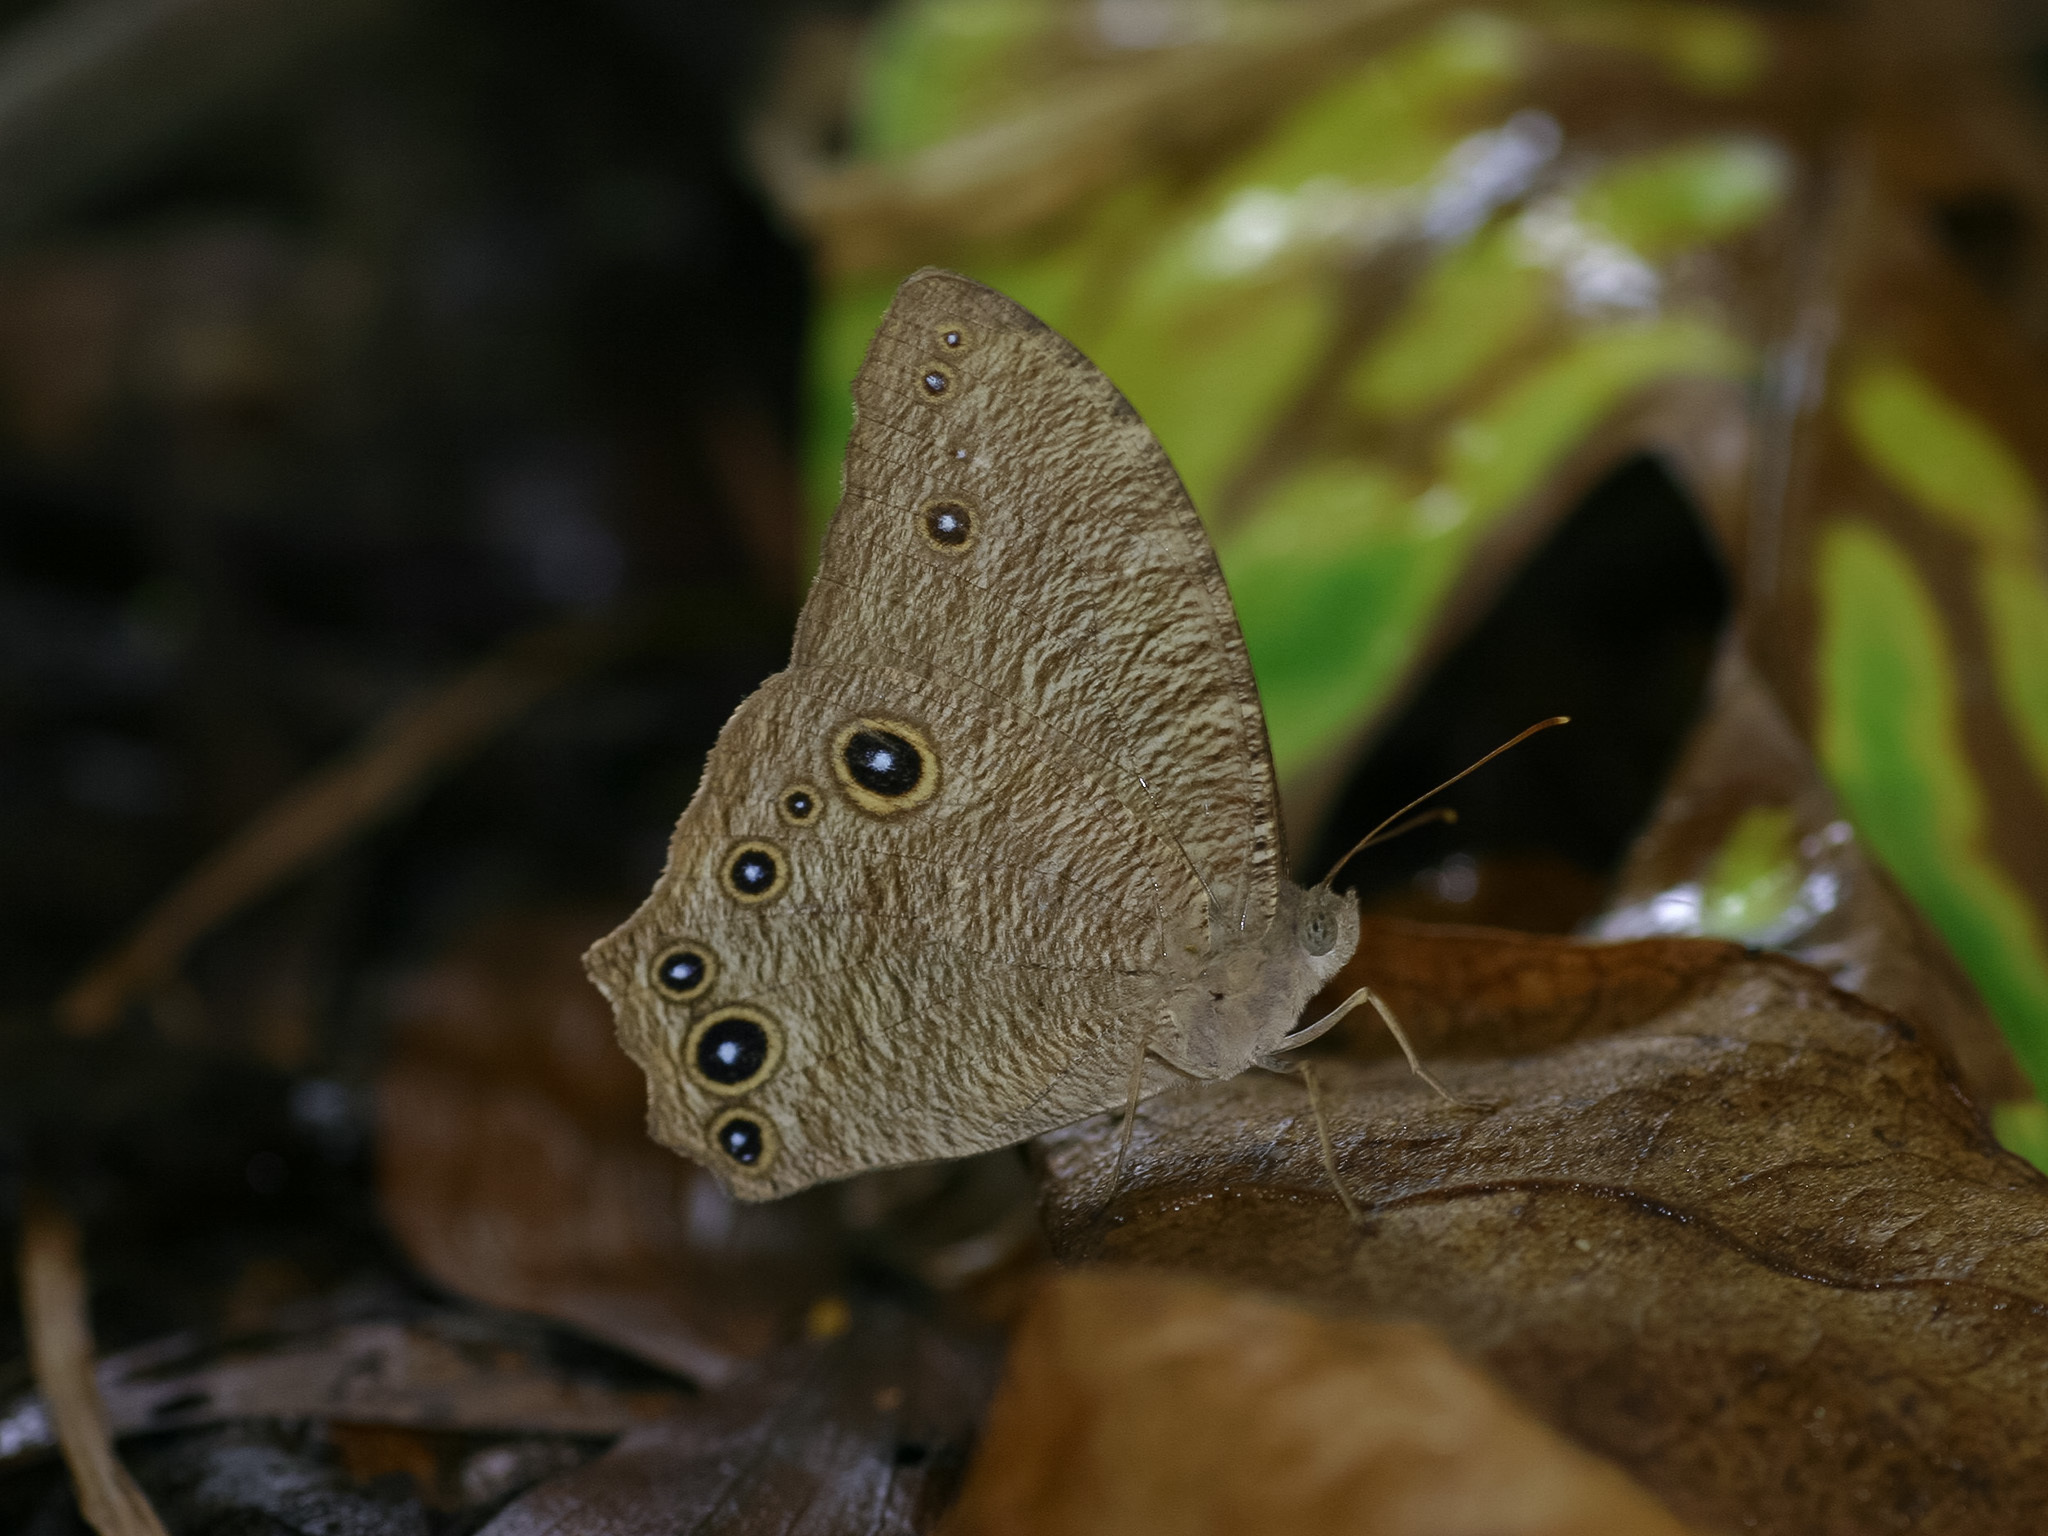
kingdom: Animalia
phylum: Arthropoda
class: Insecta
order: Lepidoptera
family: Nymphalidae
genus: Melanitis
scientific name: Melanitis leda
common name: Twilight brown
